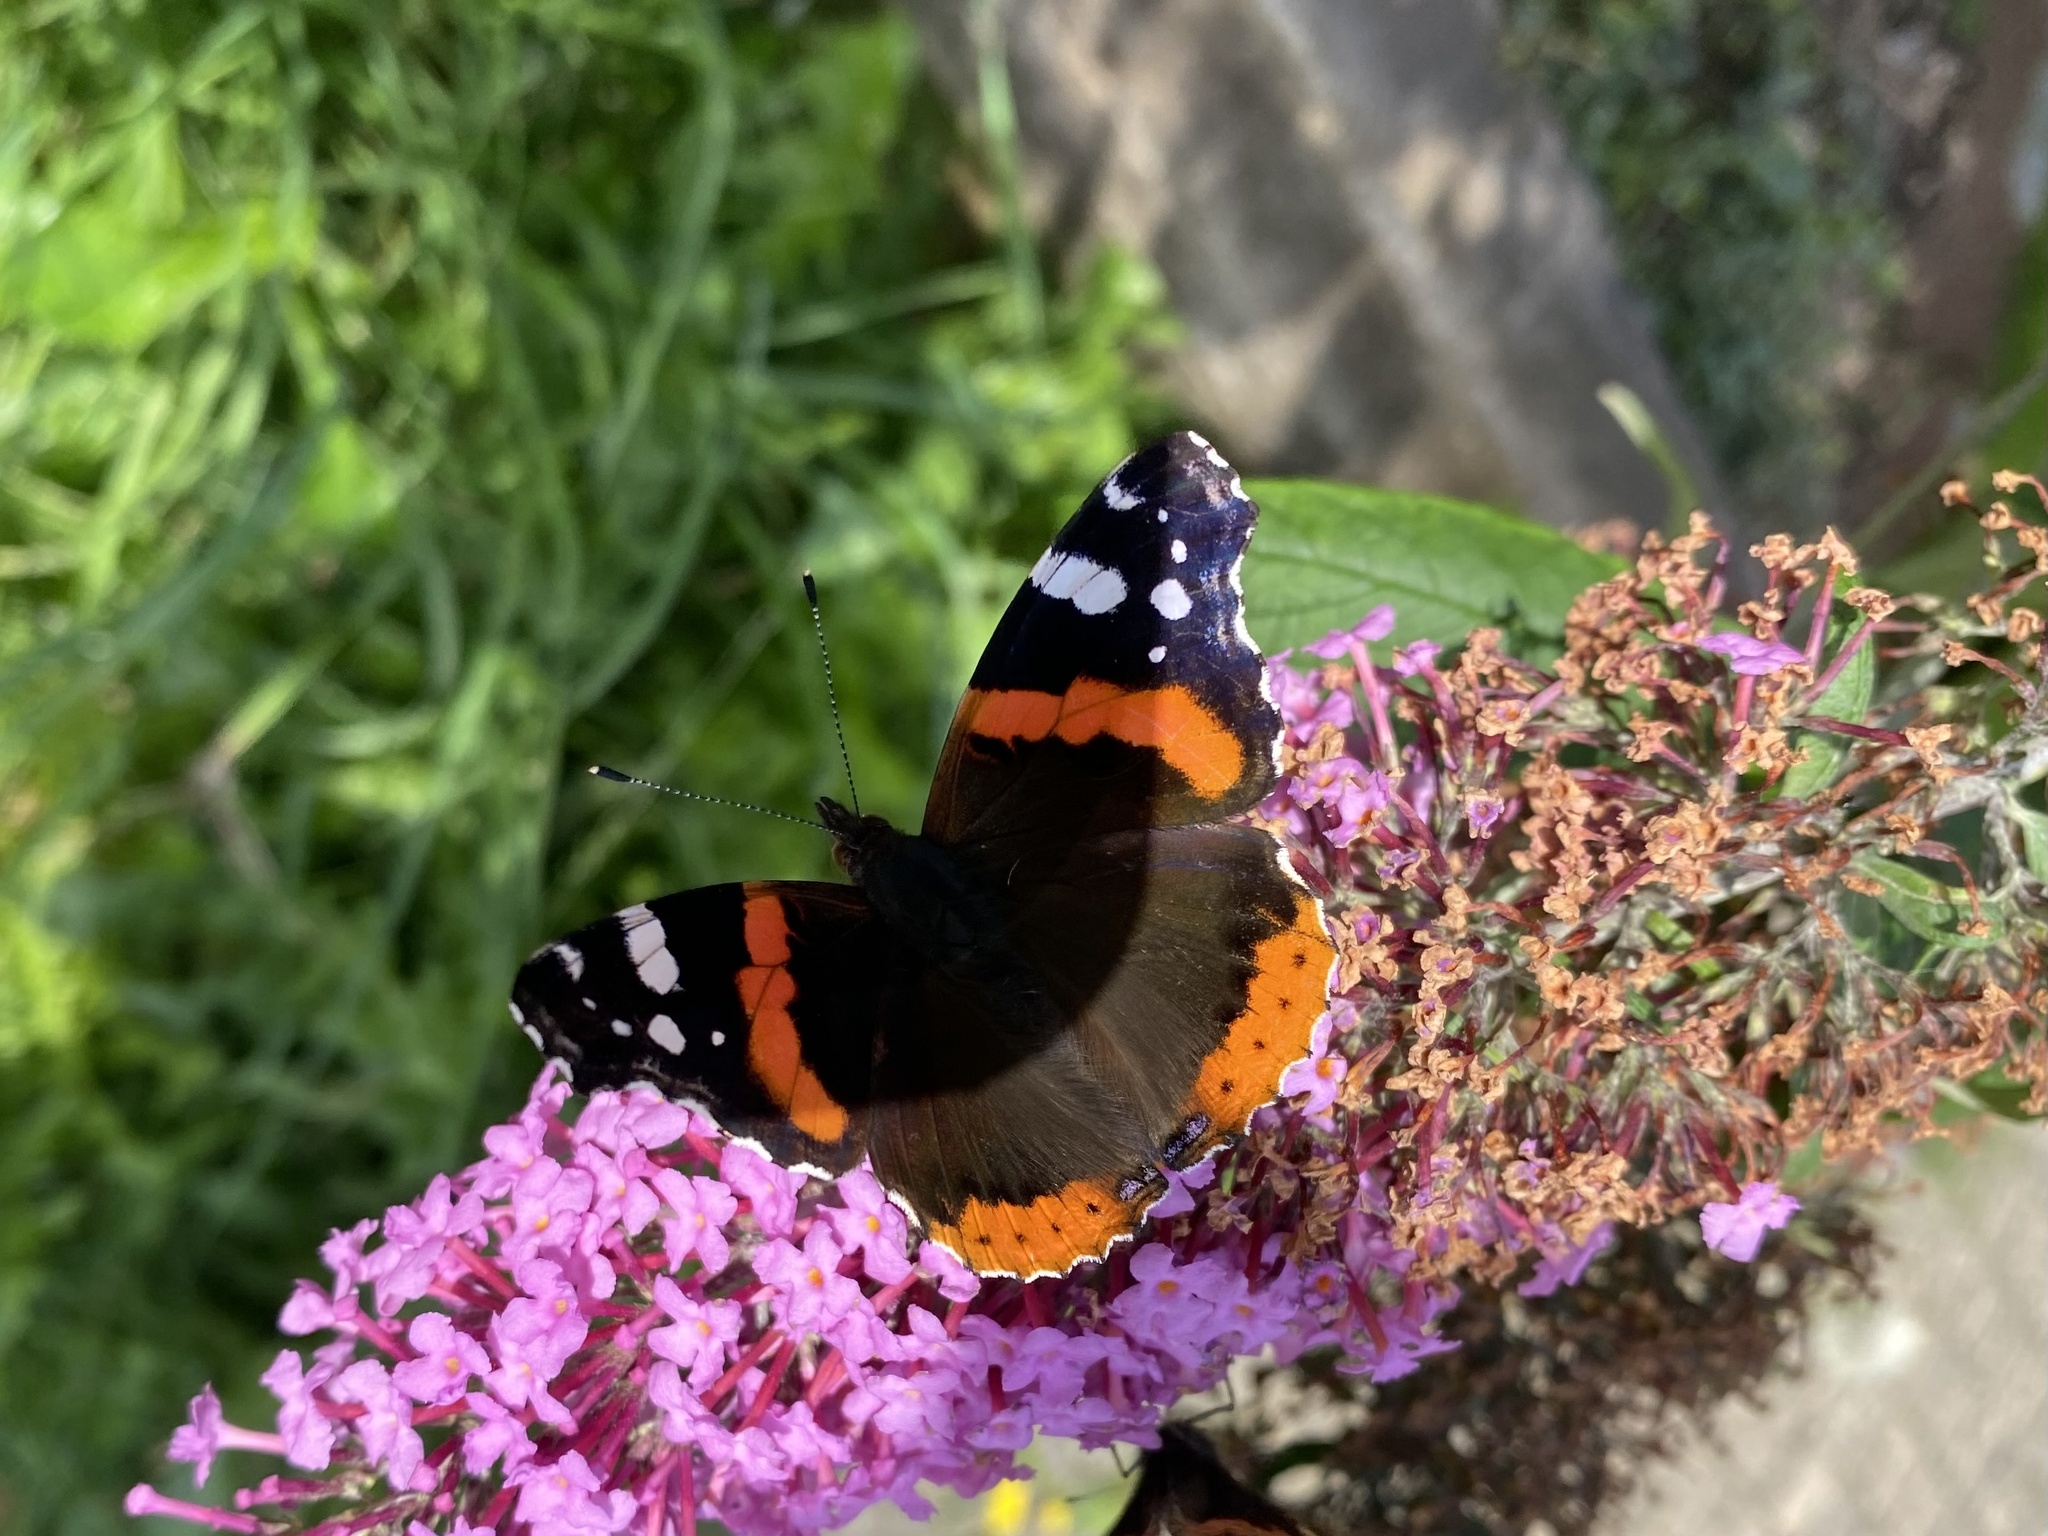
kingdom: Animalia
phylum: Arthropoda
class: Insecta
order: Lepidoptera
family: Nymphalidae
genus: Vanessa
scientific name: Vanessa atalanta
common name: Red admiral
